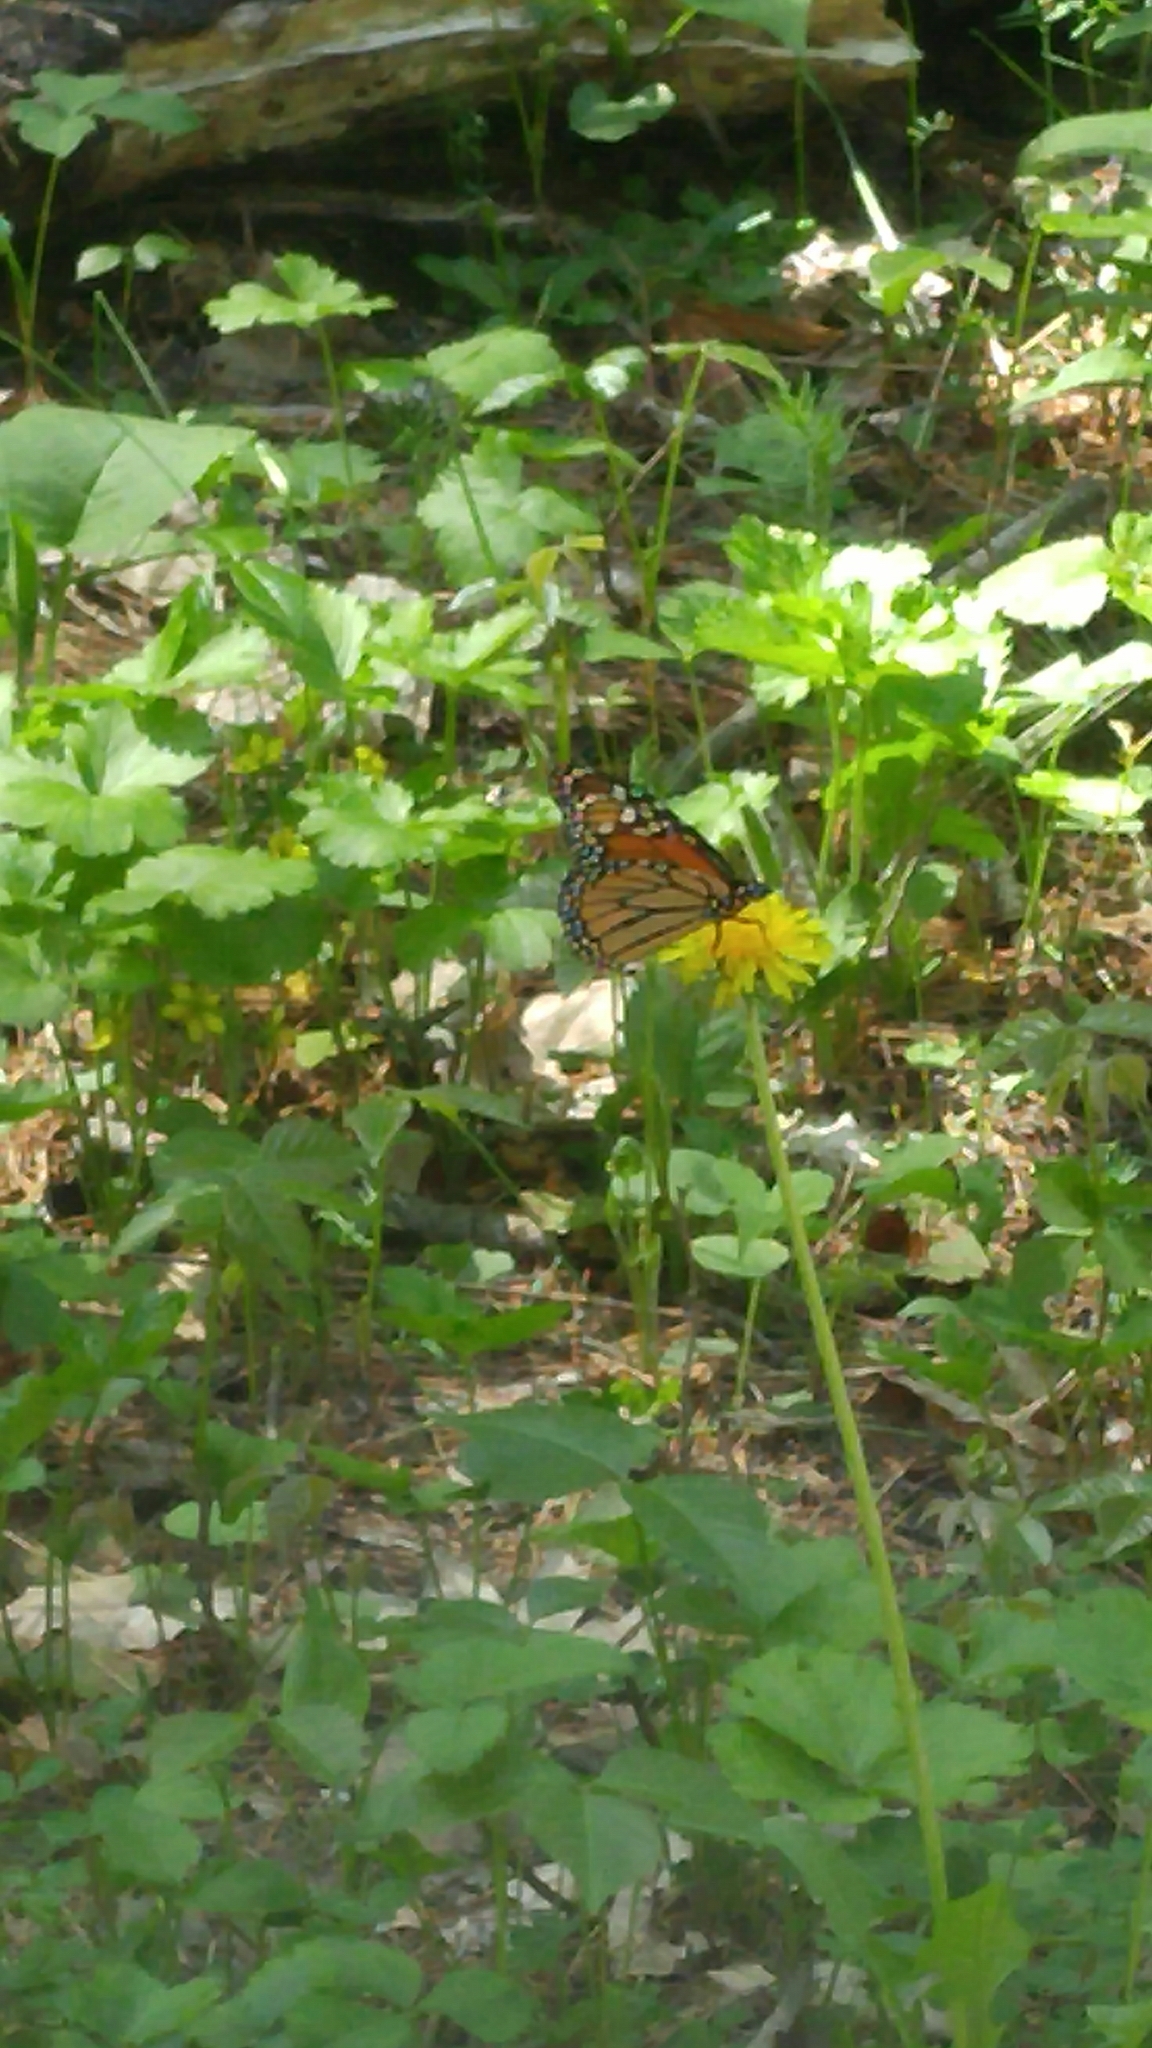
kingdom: Animalia
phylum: Arthropoda
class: Insecta
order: Lepidoptera
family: Nymphalidae
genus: Danaus
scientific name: Danaus plexippus
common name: Monarch
